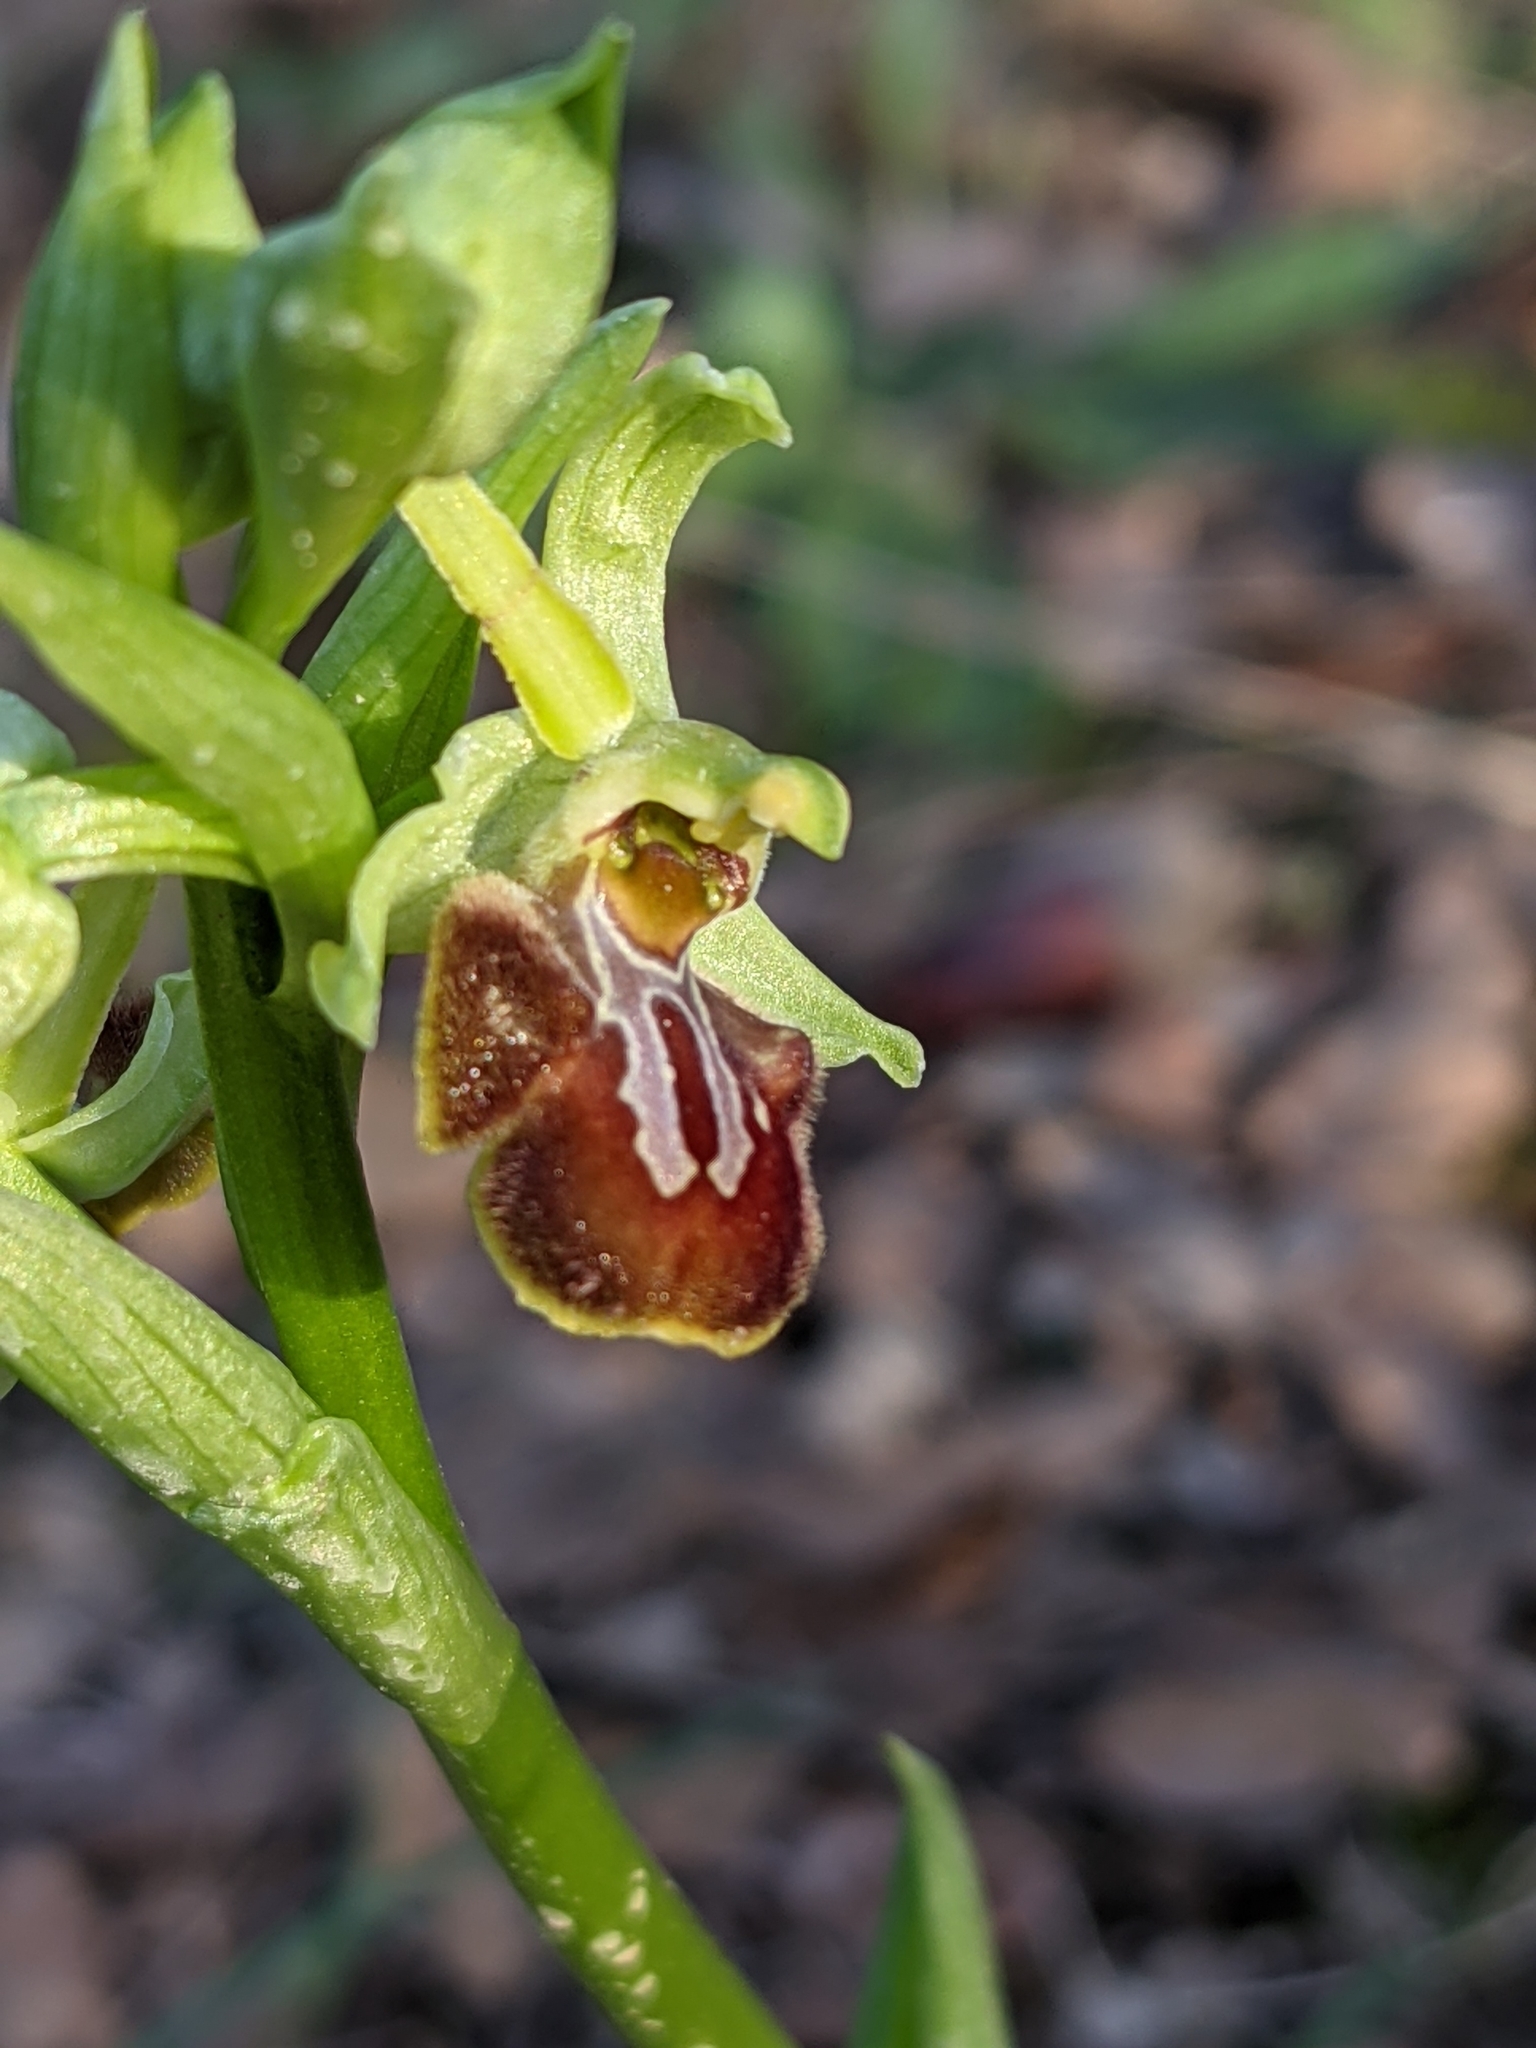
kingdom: Plantae
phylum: Tracheophyta
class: Liliopsida
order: Asparagales
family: Orchidaceae
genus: Ophrys
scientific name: Ophrys sphegodes
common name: Early spider-orchid
